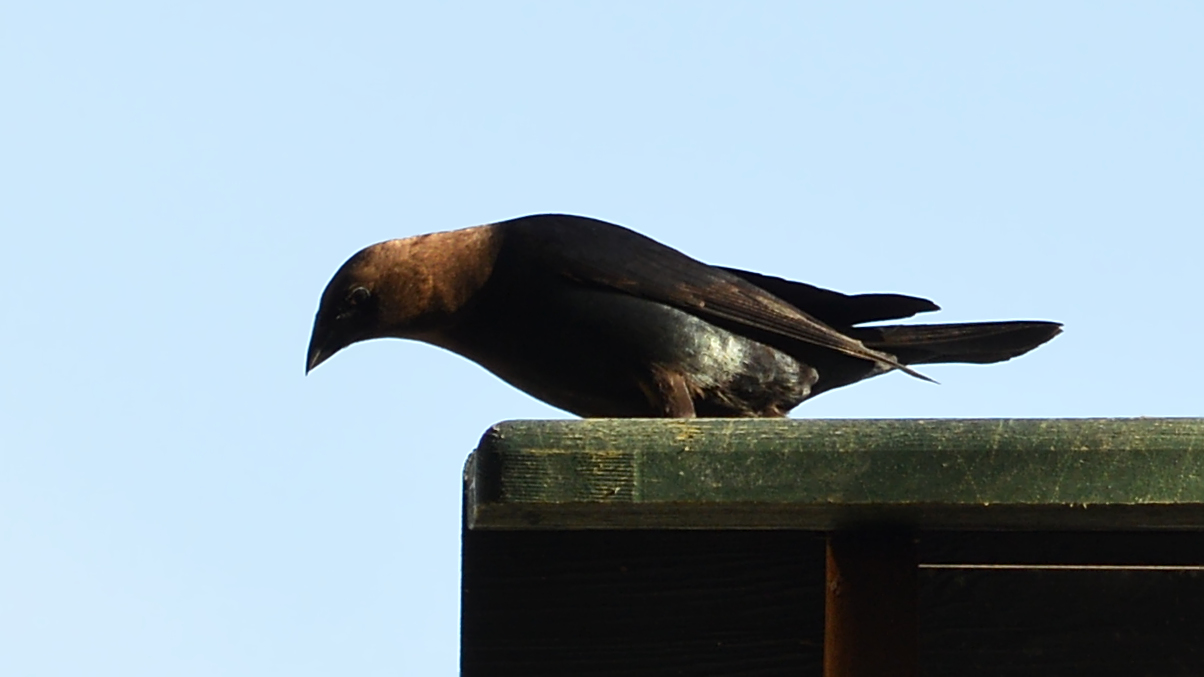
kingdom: Animalia
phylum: Chordata
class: Aves
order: Passeriformes
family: Icteridae
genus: Molothrus
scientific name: Molothrus ater
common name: Brown-headed cowbird
